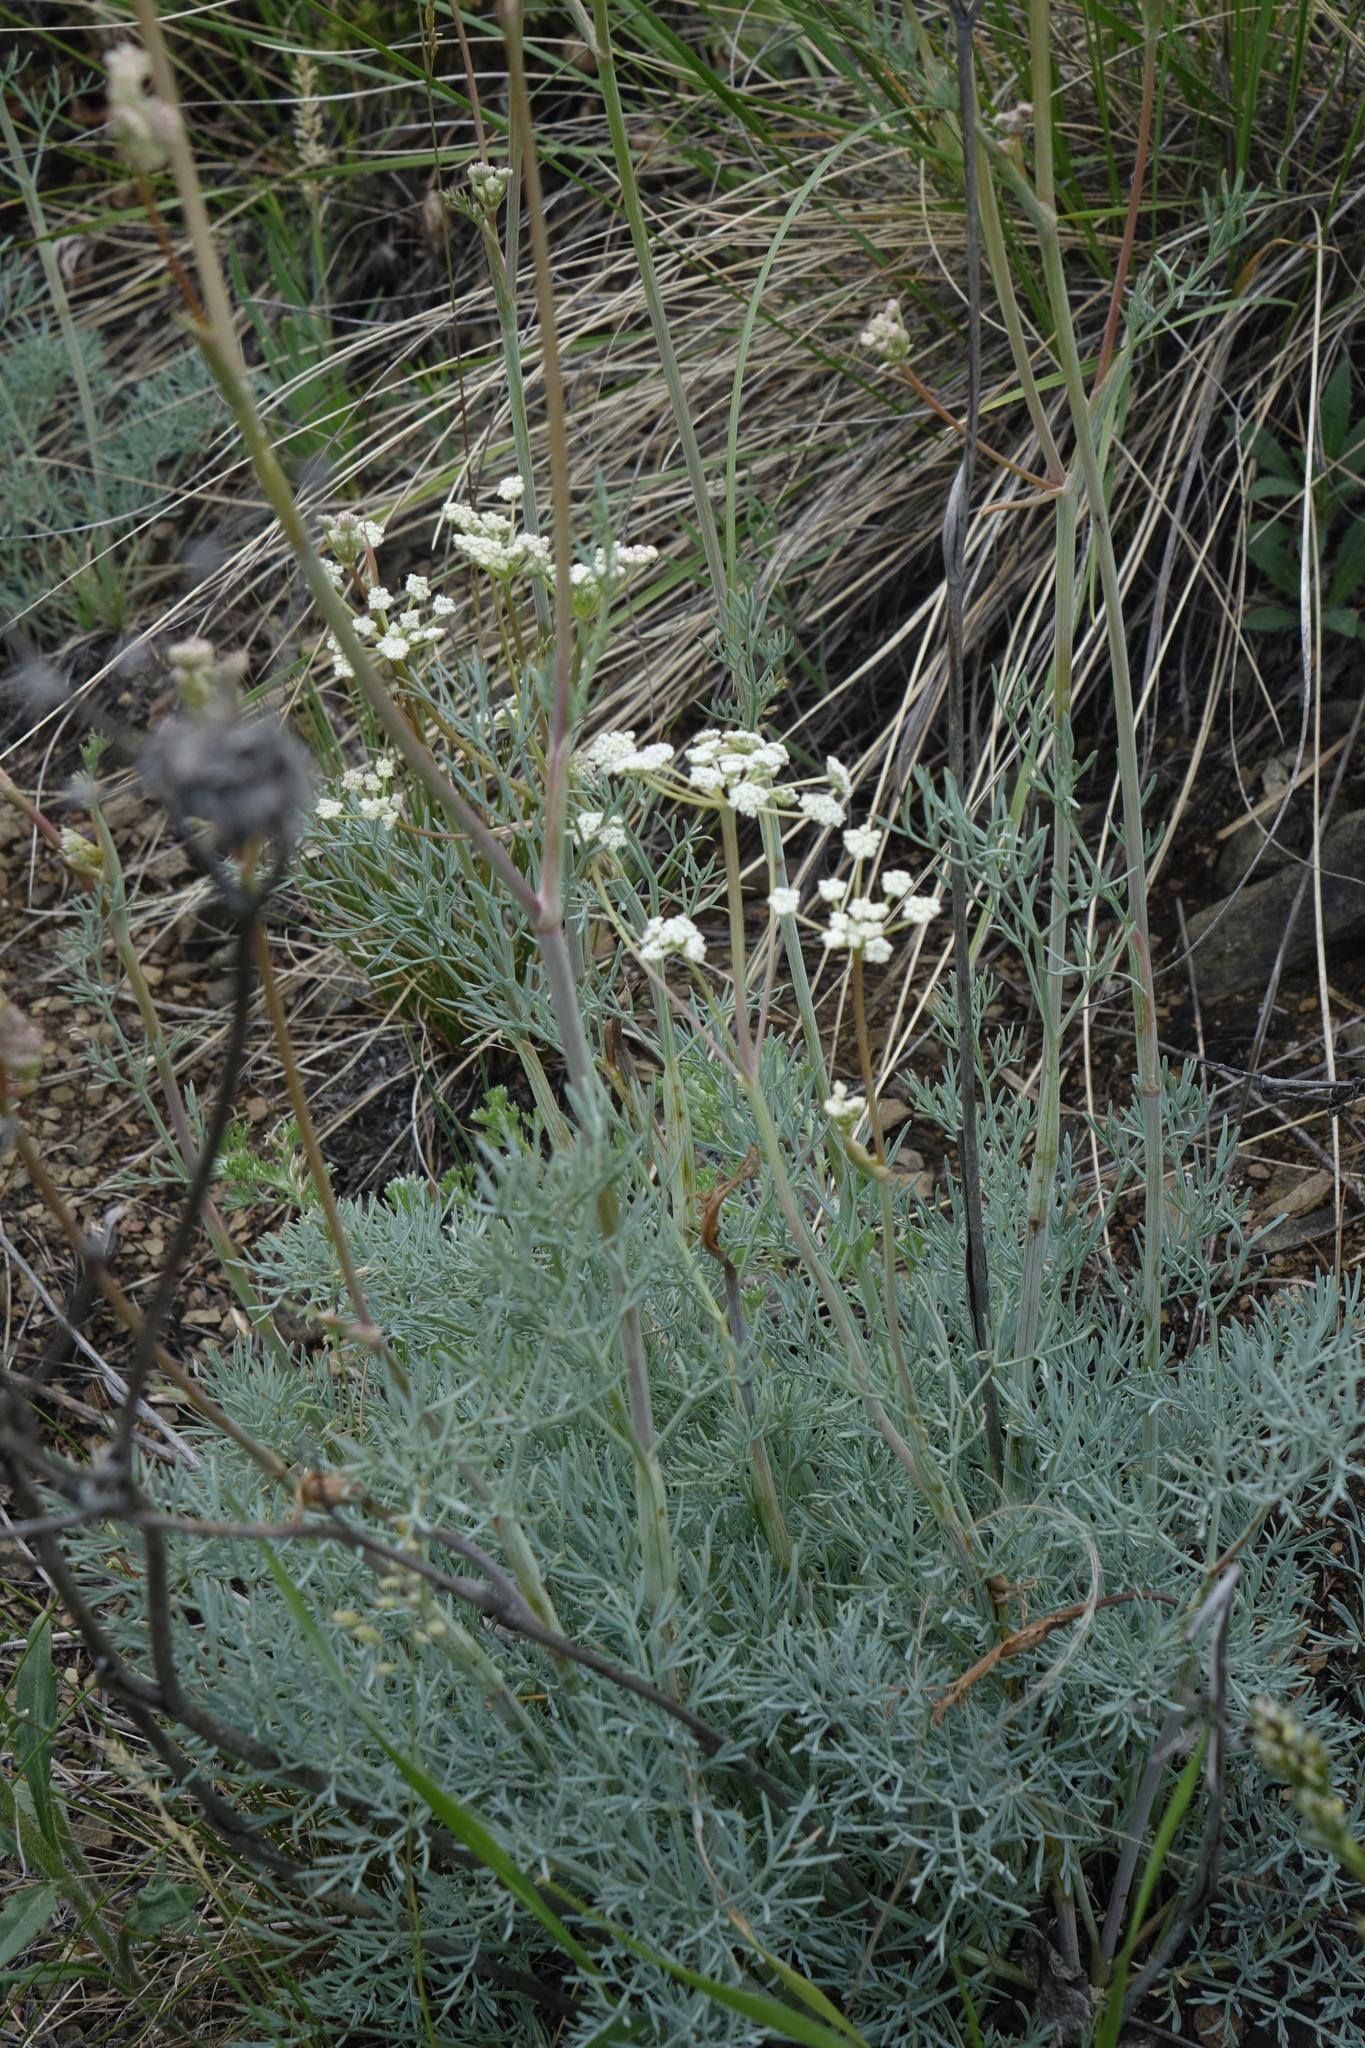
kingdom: Plantae
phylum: Tracheophyta
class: Magnoliopsida
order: Apiales
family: Apiaceae
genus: Seseli
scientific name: Seseli ledebourii
